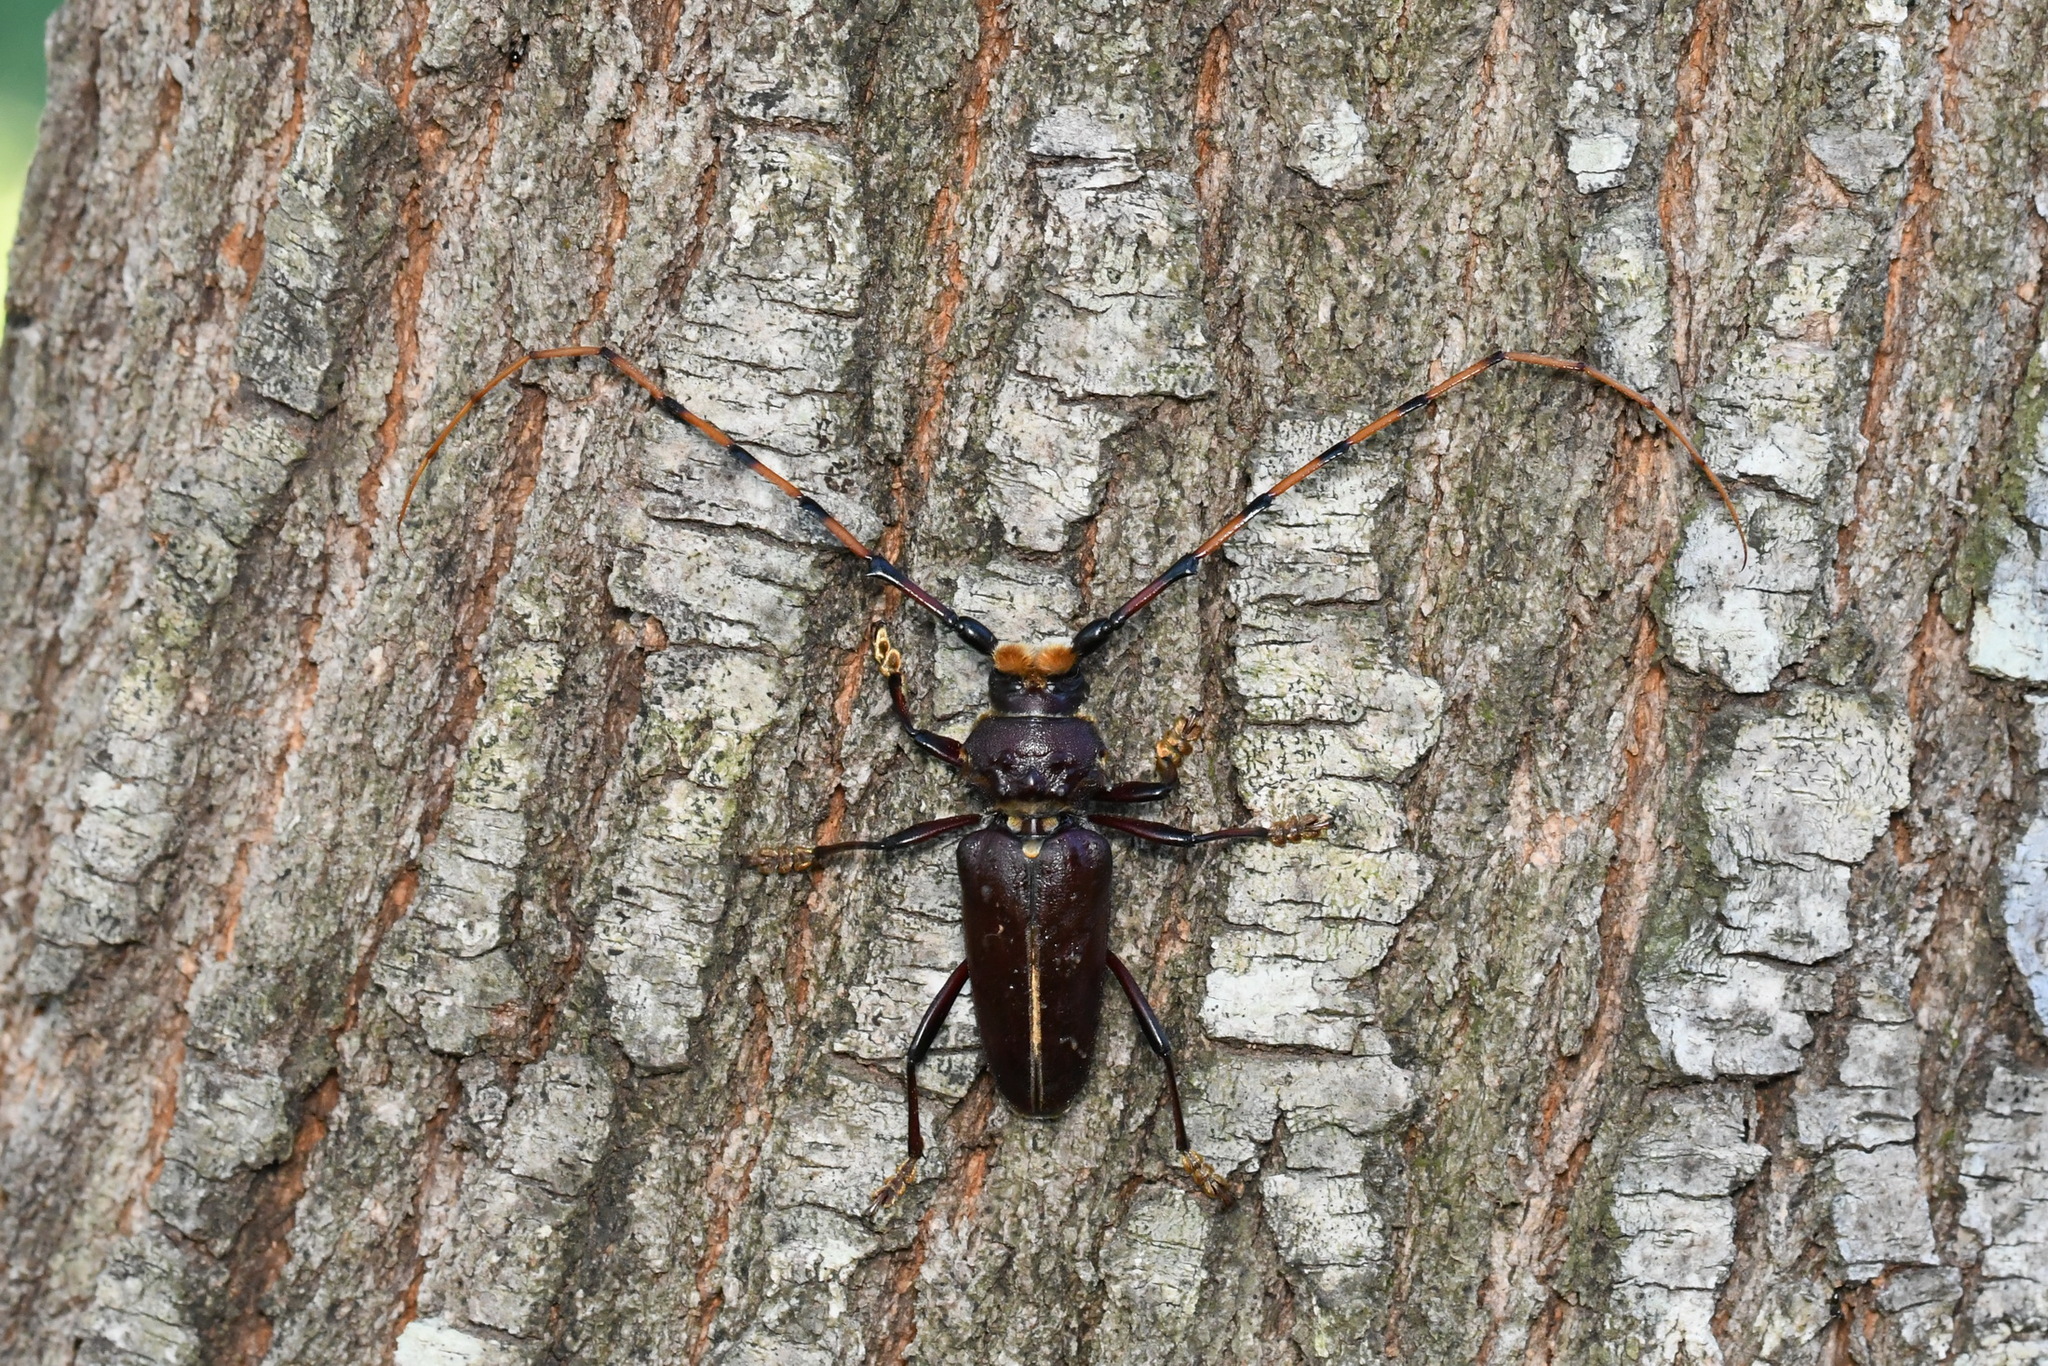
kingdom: Animalia
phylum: Arthropoda
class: Insecta
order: Coleoptera
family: Cerambycidae
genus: Dorcacerus
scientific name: Dorcacerus barbatus
